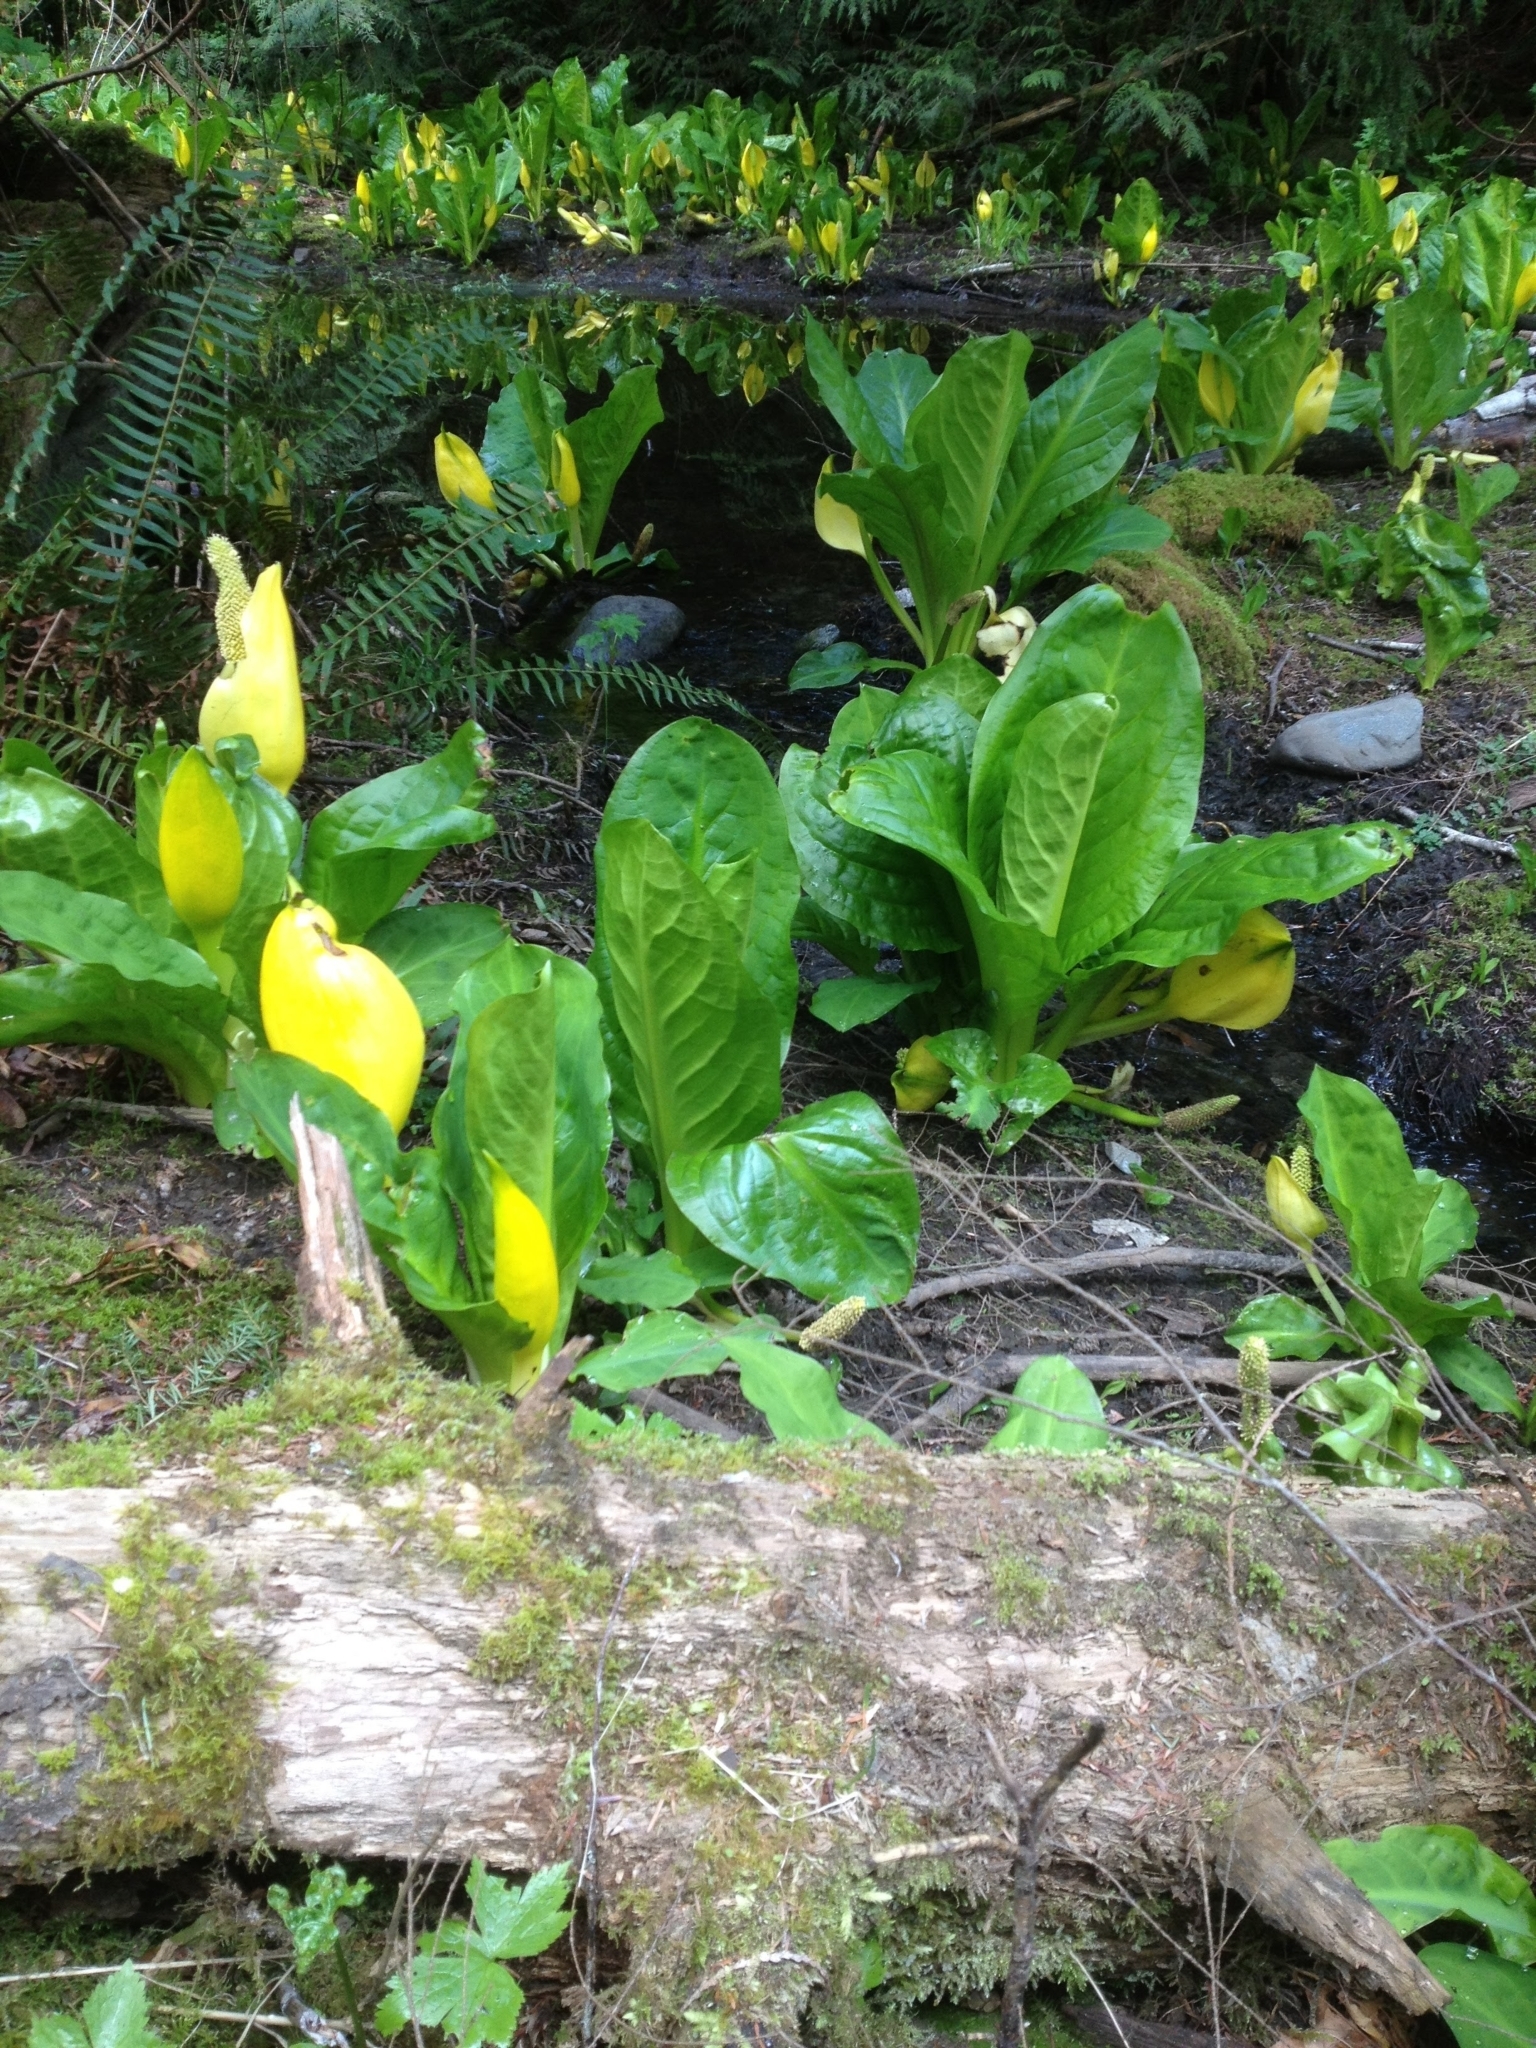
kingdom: Plantae
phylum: Tracheophyta
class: Liliopsida
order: Alismatales
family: Araceae
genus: Lysichiton
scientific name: Lysichiton americanus
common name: American skunk cabbage
